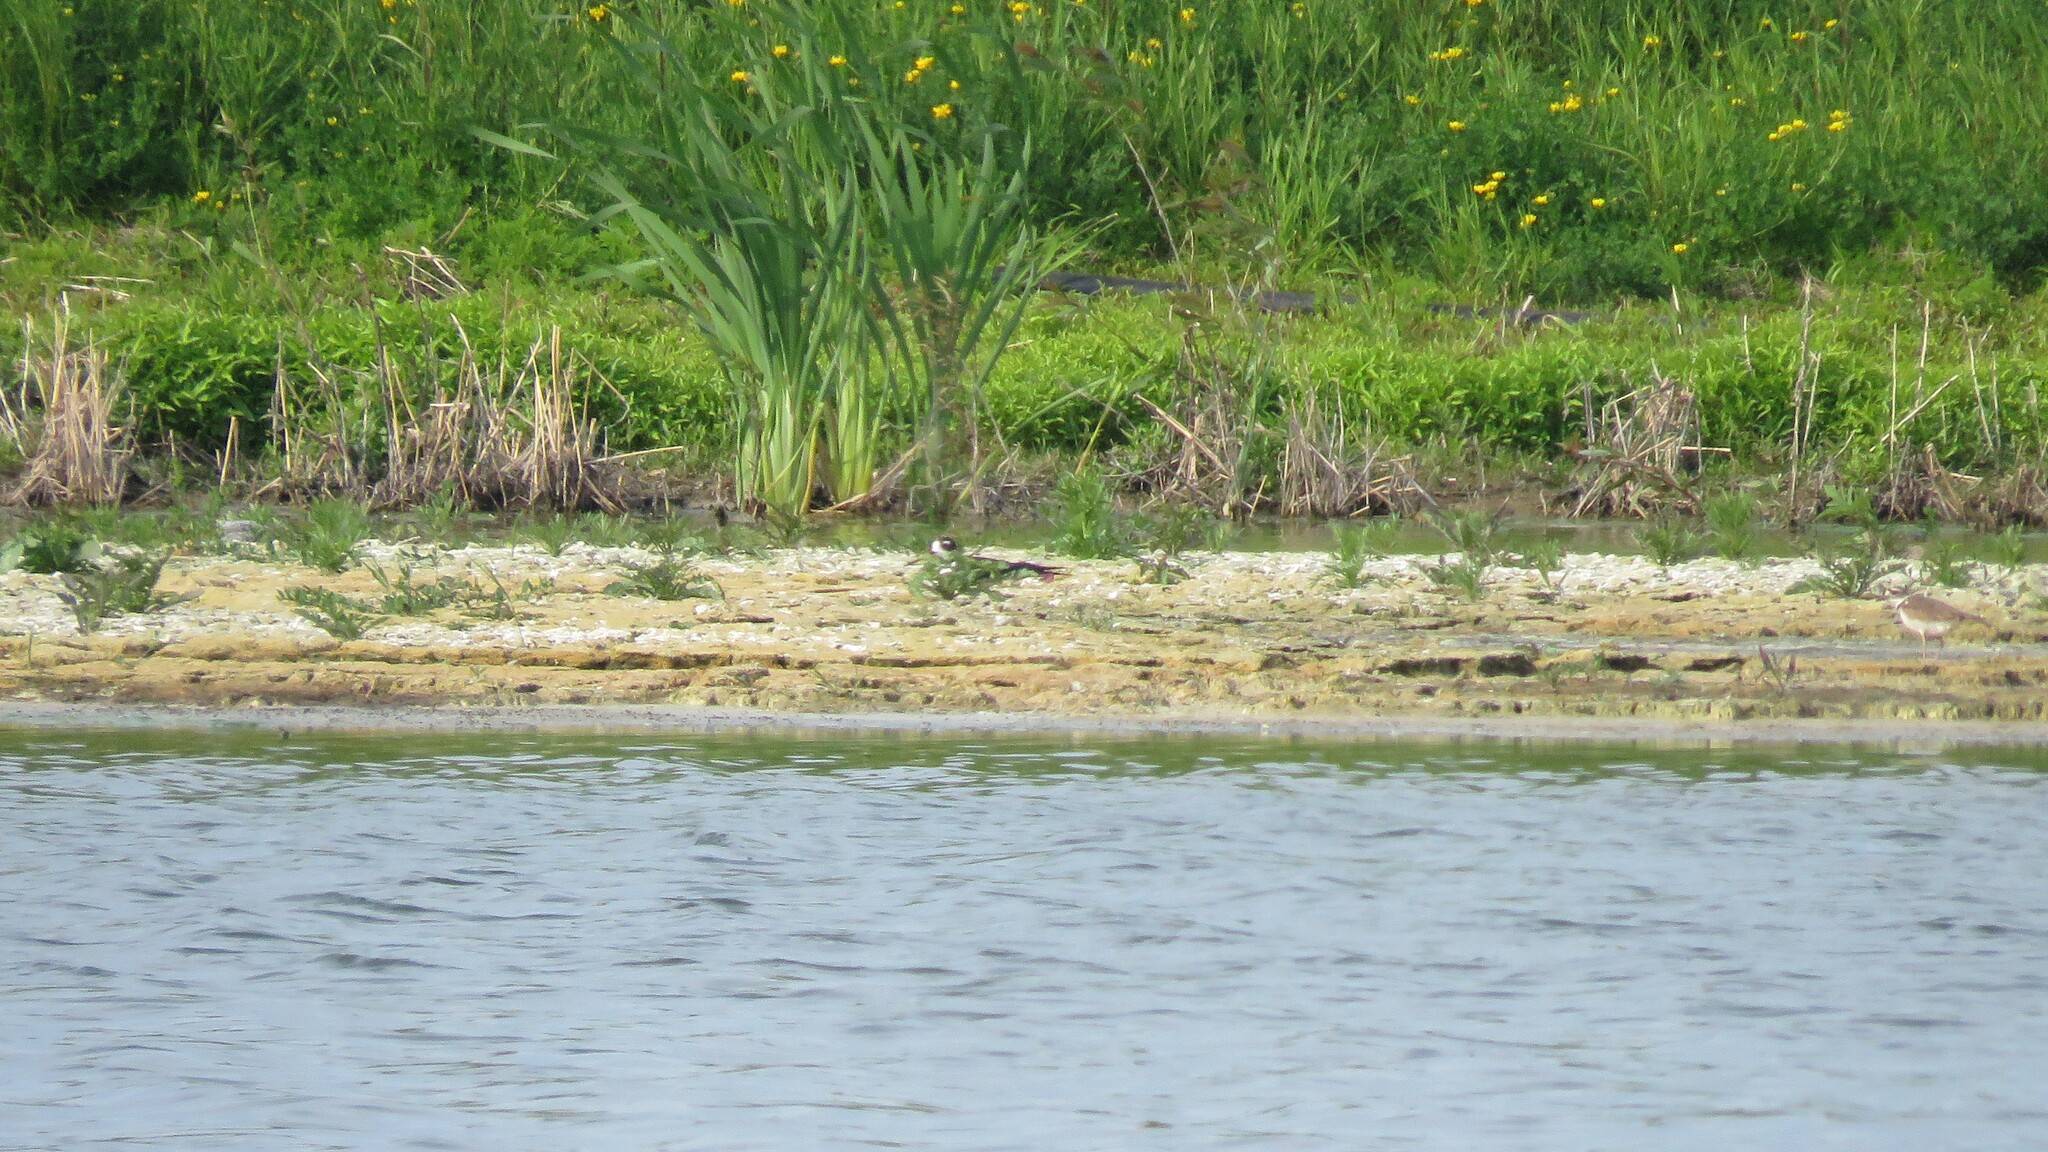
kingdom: Animalia
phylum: Chordata
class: Aves
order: Charadriiformes
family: Recurvirostridae
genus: Himantopus
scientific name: Himantopus mexicanus
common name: Black-necked stilt
